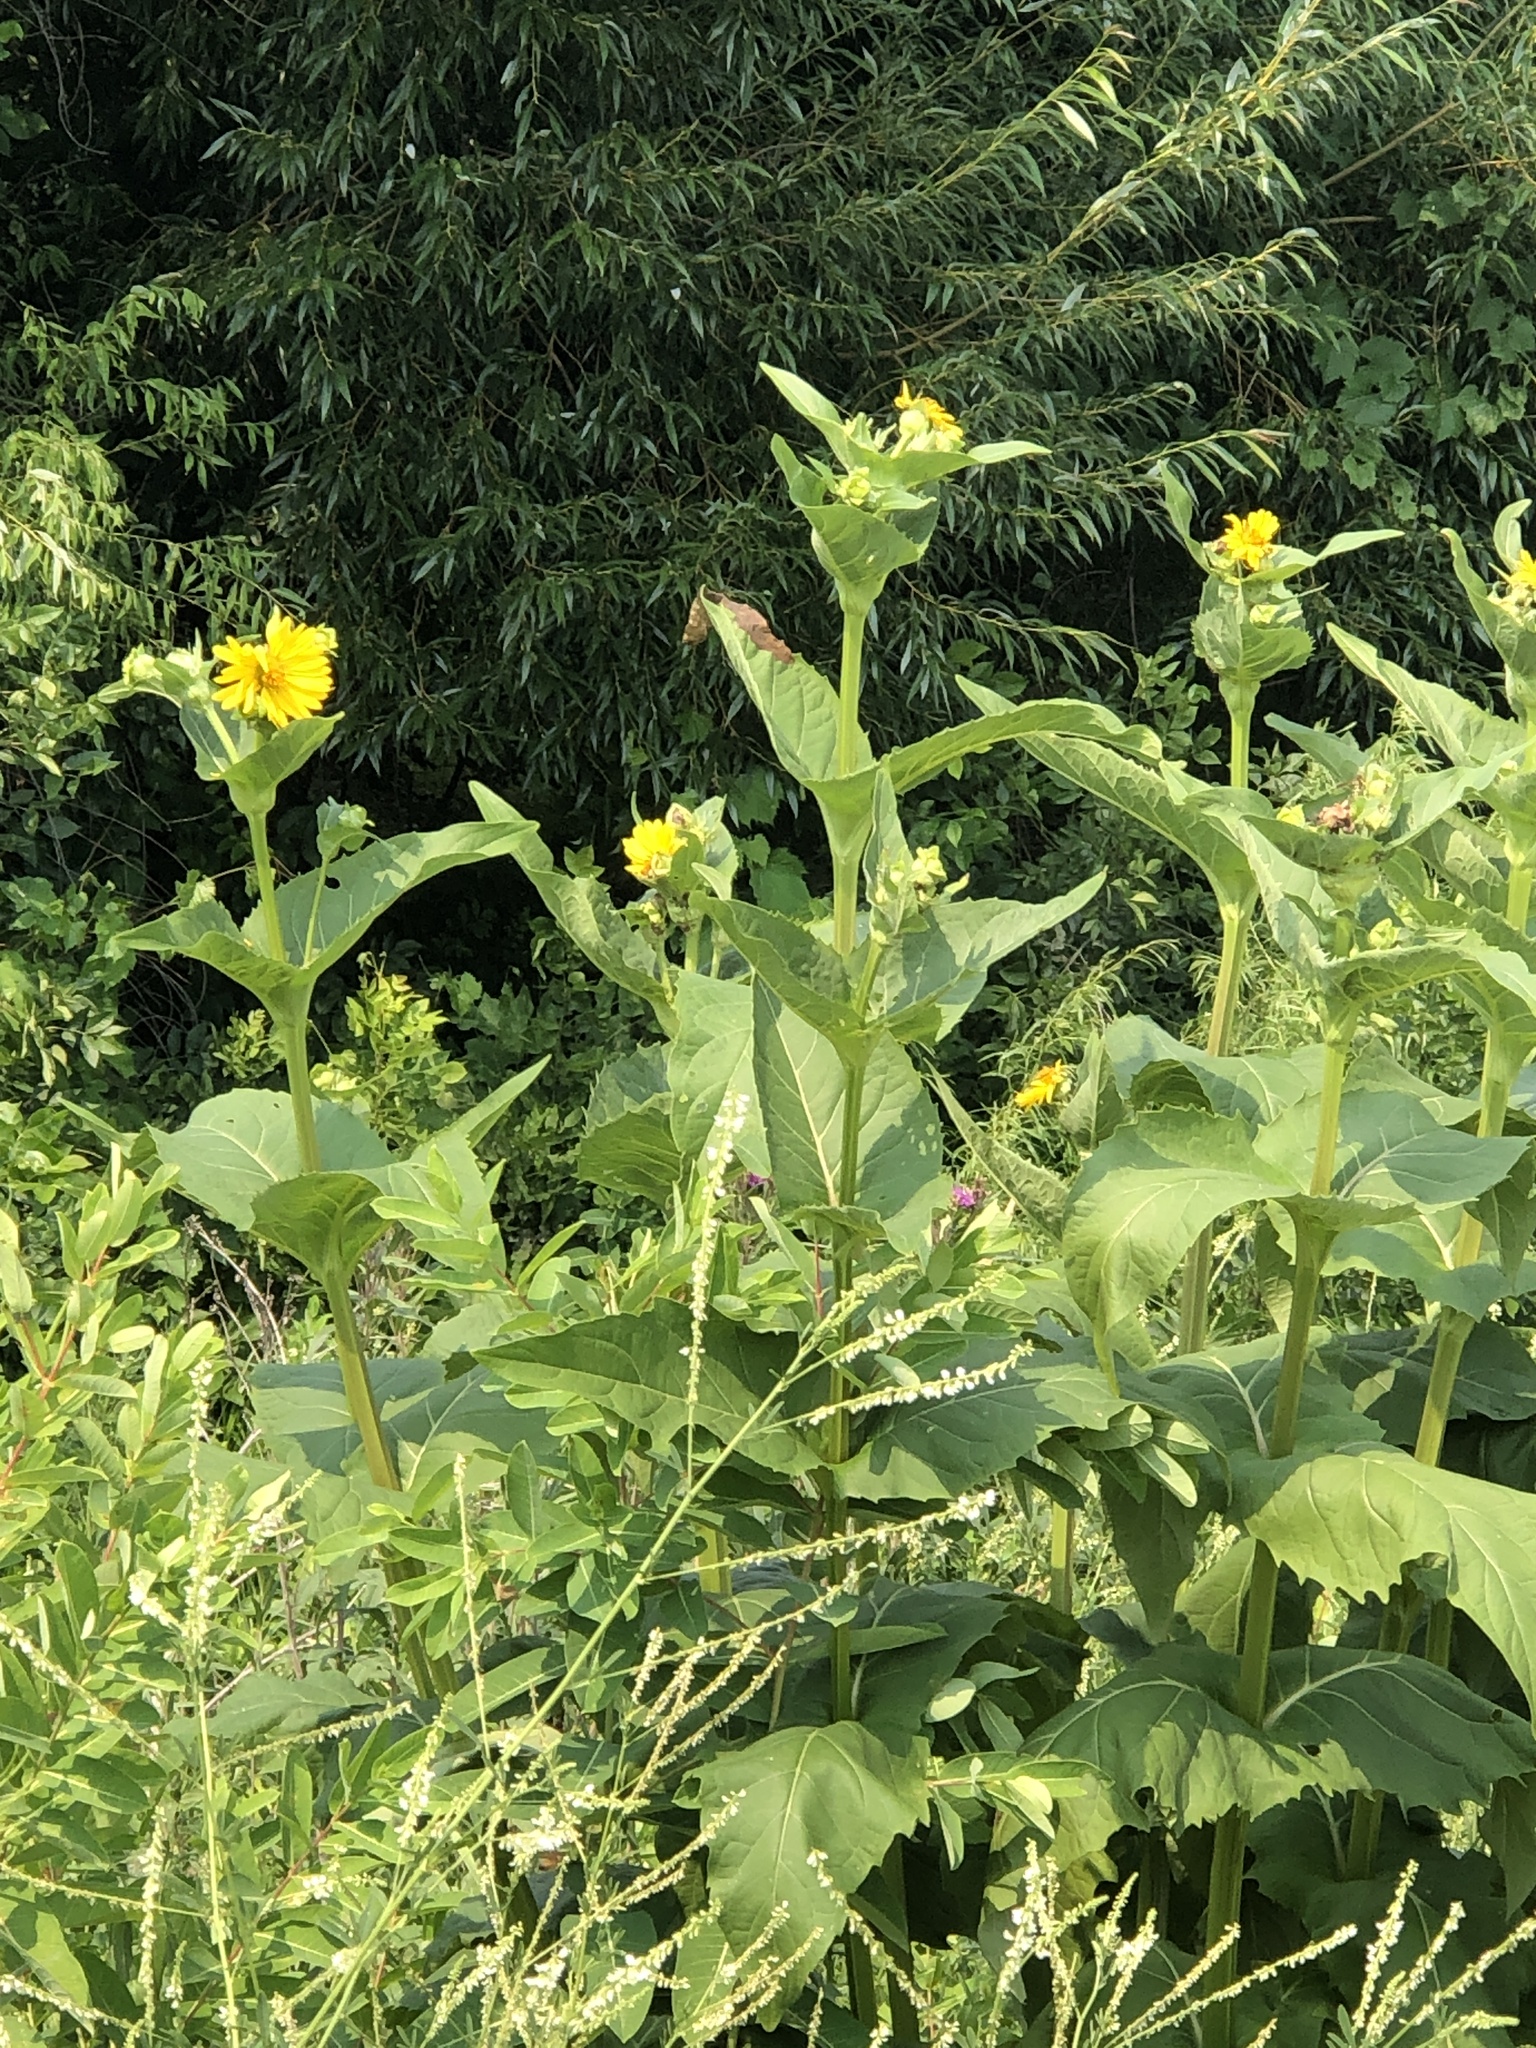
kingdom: Plantae
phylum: Tracheophyta
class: Magnoliopsida
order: Asterales
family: Asteraceae
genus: Silphium
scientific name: Silphium perfoliatum
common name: Cup-plant
